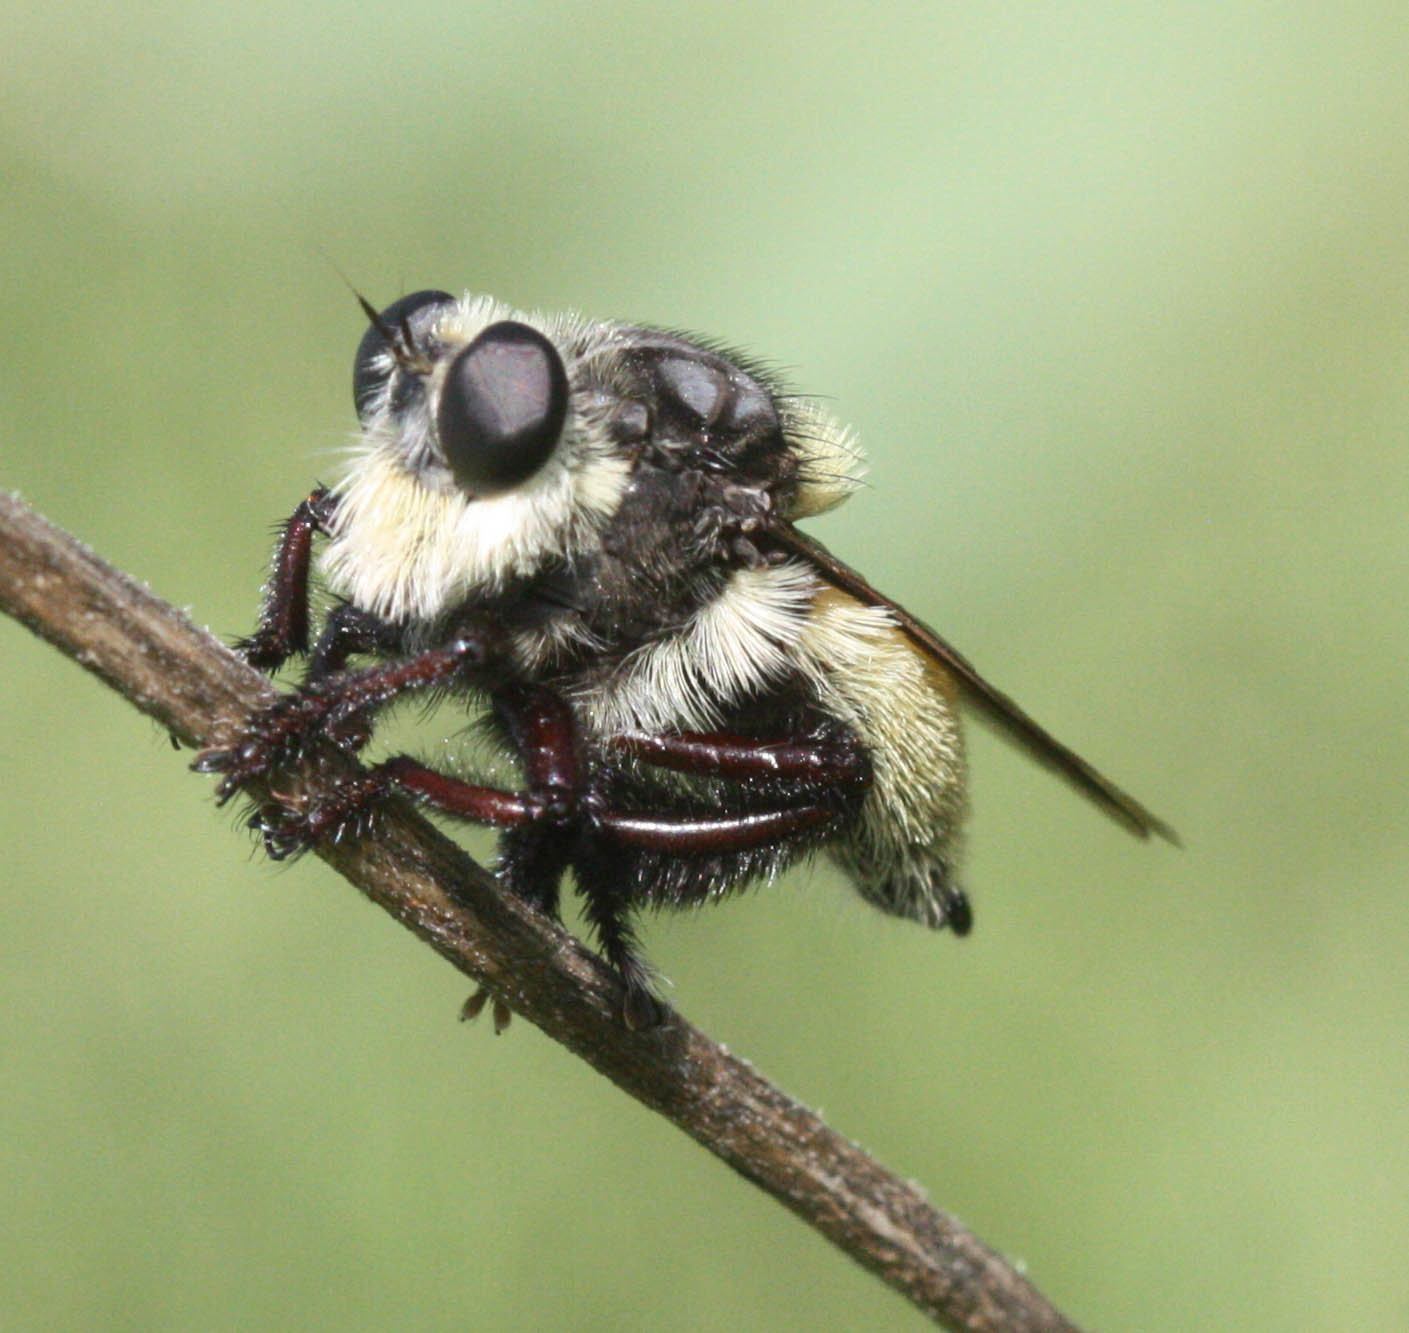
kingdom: Animalia
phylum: Arthropoda
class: Insecta
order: Diptera
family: Asilidae
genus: Mallophora
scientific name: Mallophora fautrix
